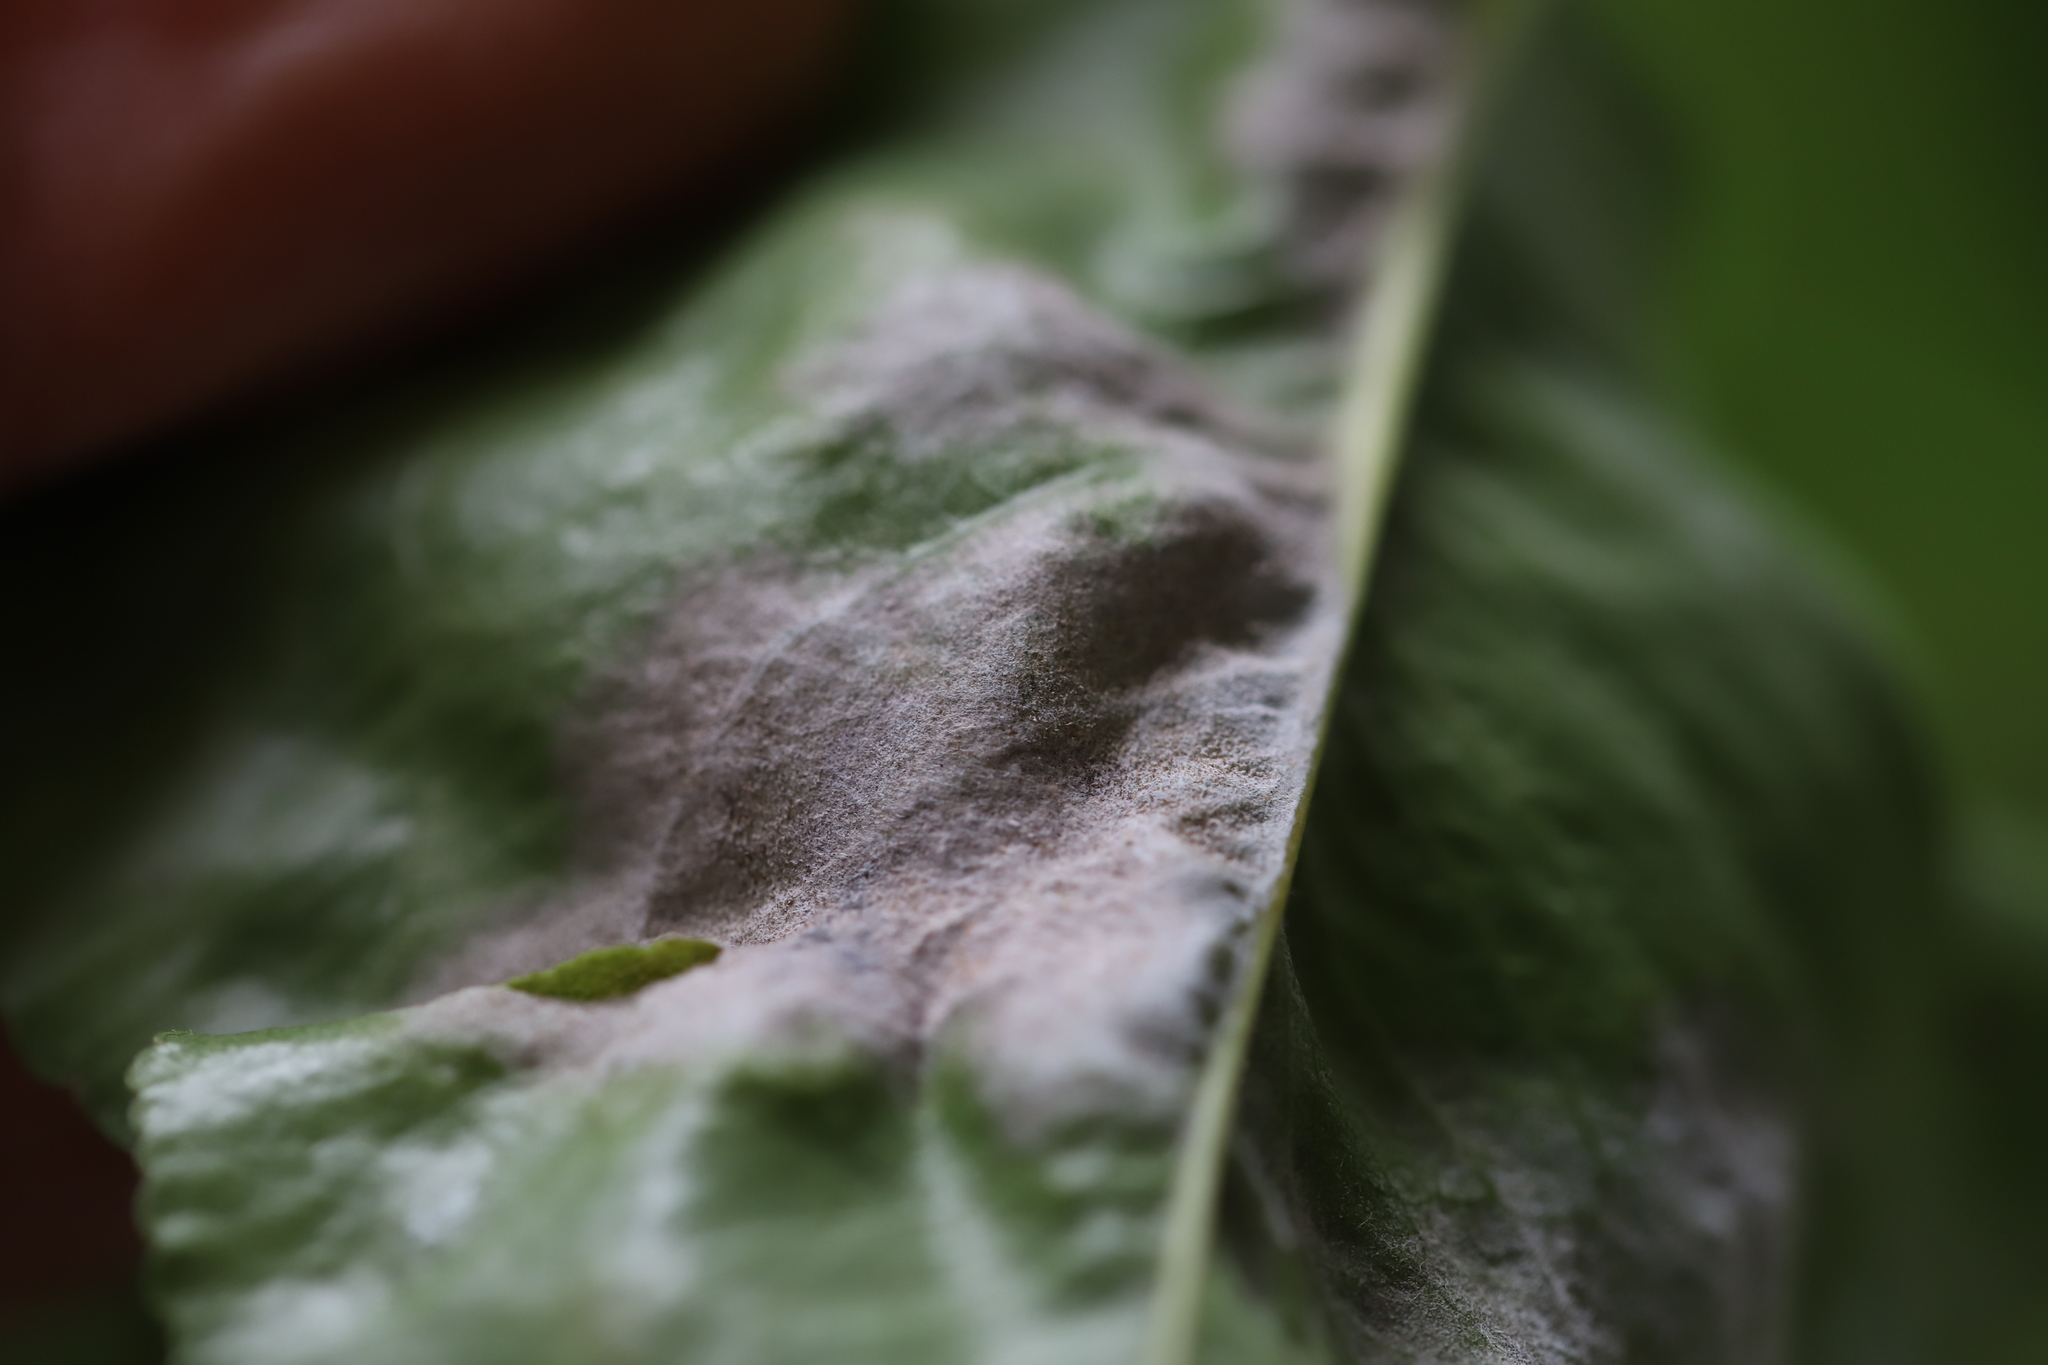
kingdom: Fungi
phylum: Ascomycota
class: Leotiomycetes
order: Helotiales
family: Erysiphaceae
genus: Podosphaera
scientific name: Podosphaera leucotricha
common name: Apple powdery mildew
